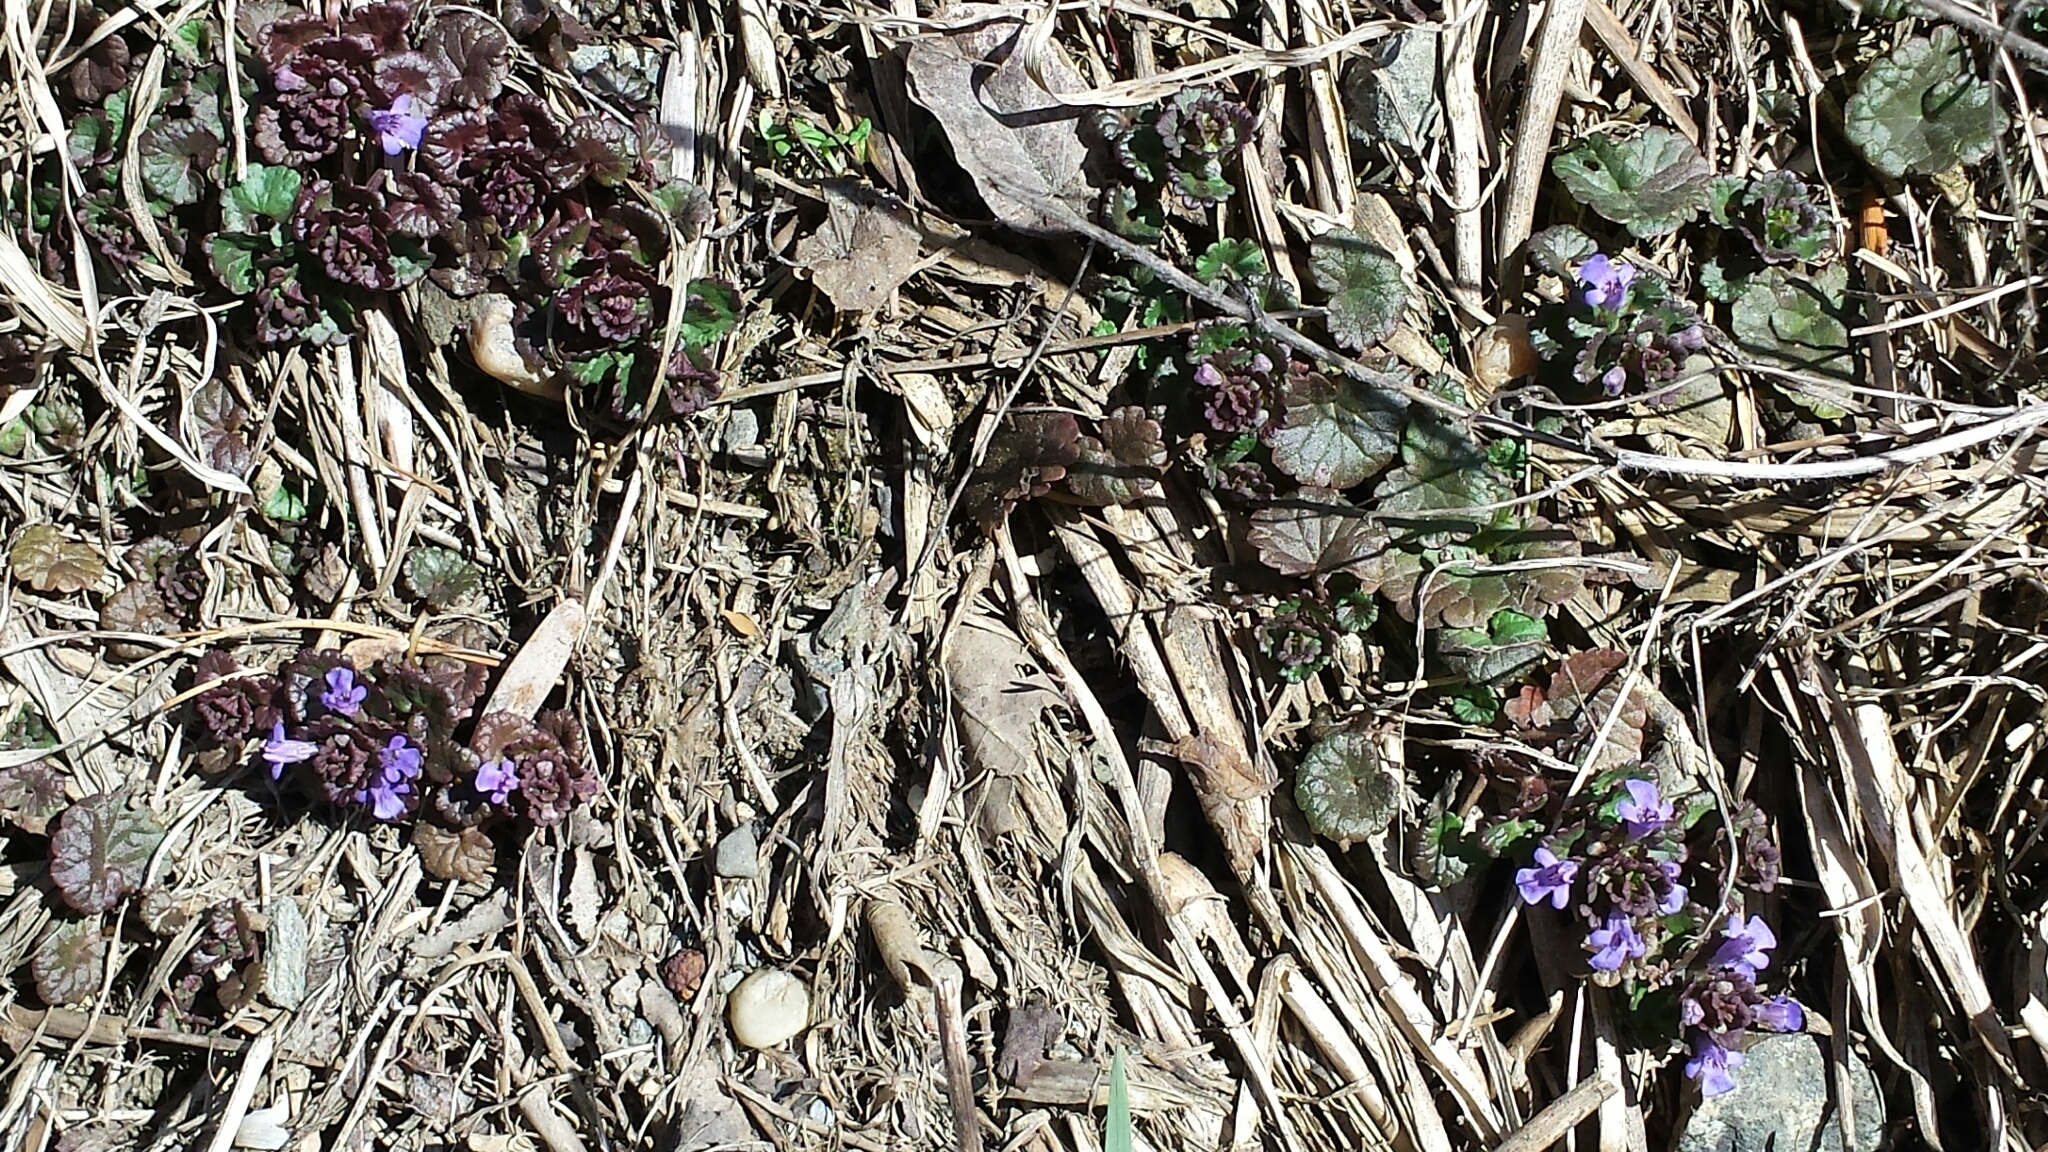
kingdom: Plantae
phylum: Tracheophyta
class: Magnoliopsida
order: Lamiales
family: Lamiaceae
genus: Glechoma
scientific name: Glechoma hederacea
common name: Ground ivy
